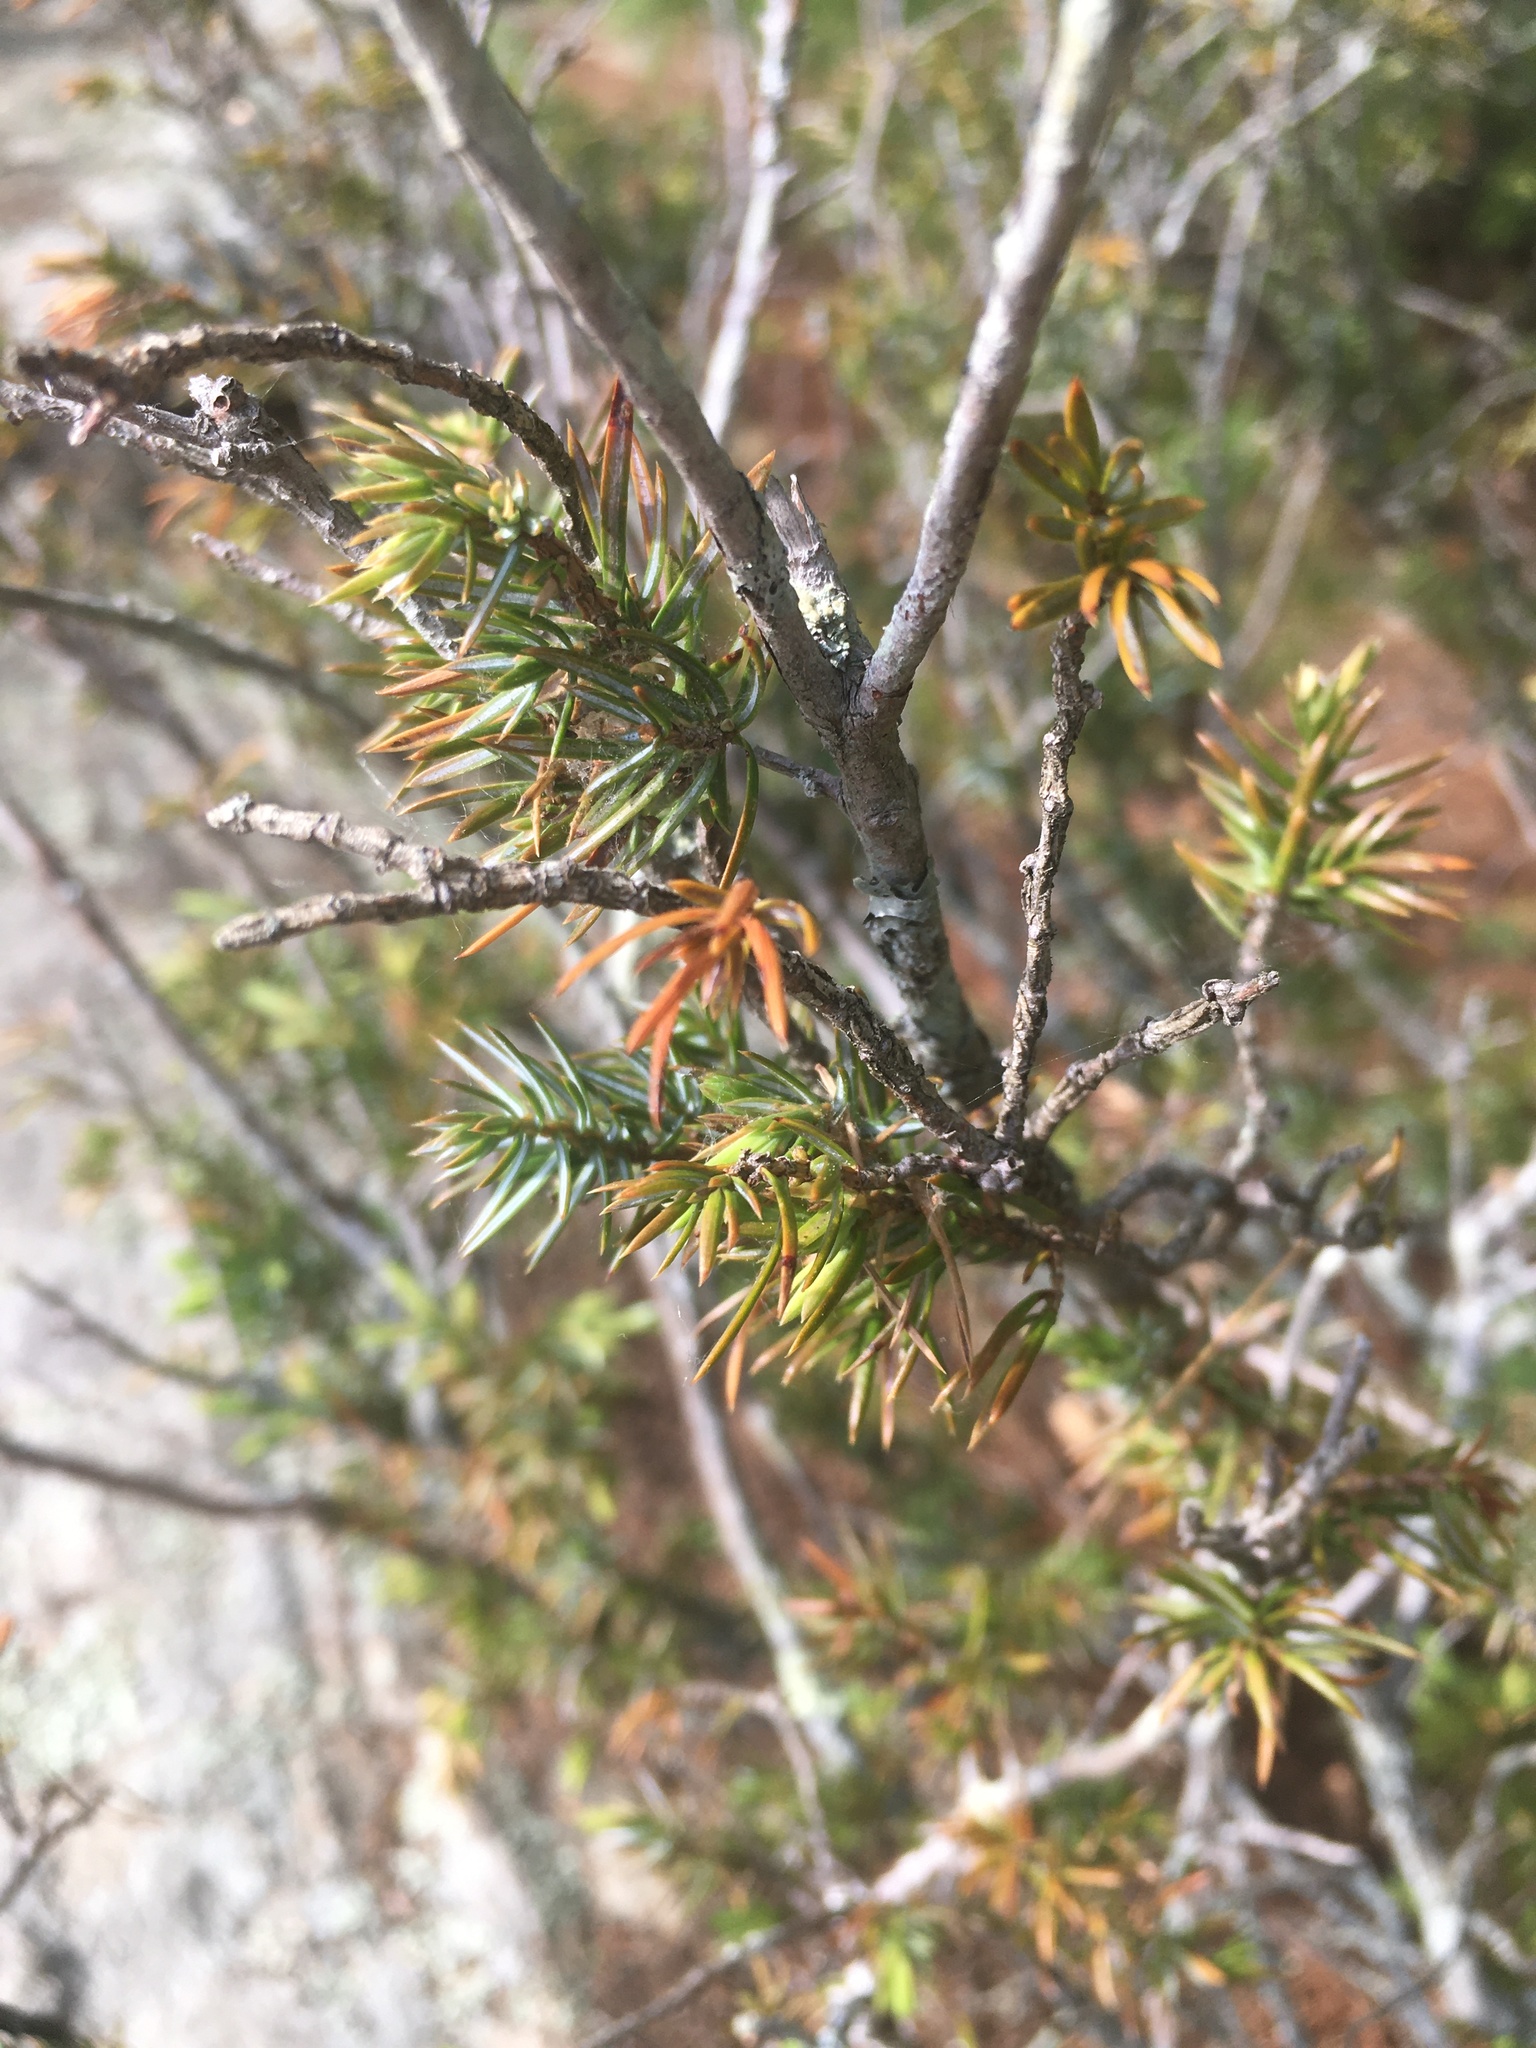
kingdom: Plantae
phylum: Tracheophyta
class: Pinopsida
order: Pinales
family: Cupressaceae
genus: Juniperus
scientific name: Juniperus communis
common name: Common juniper
